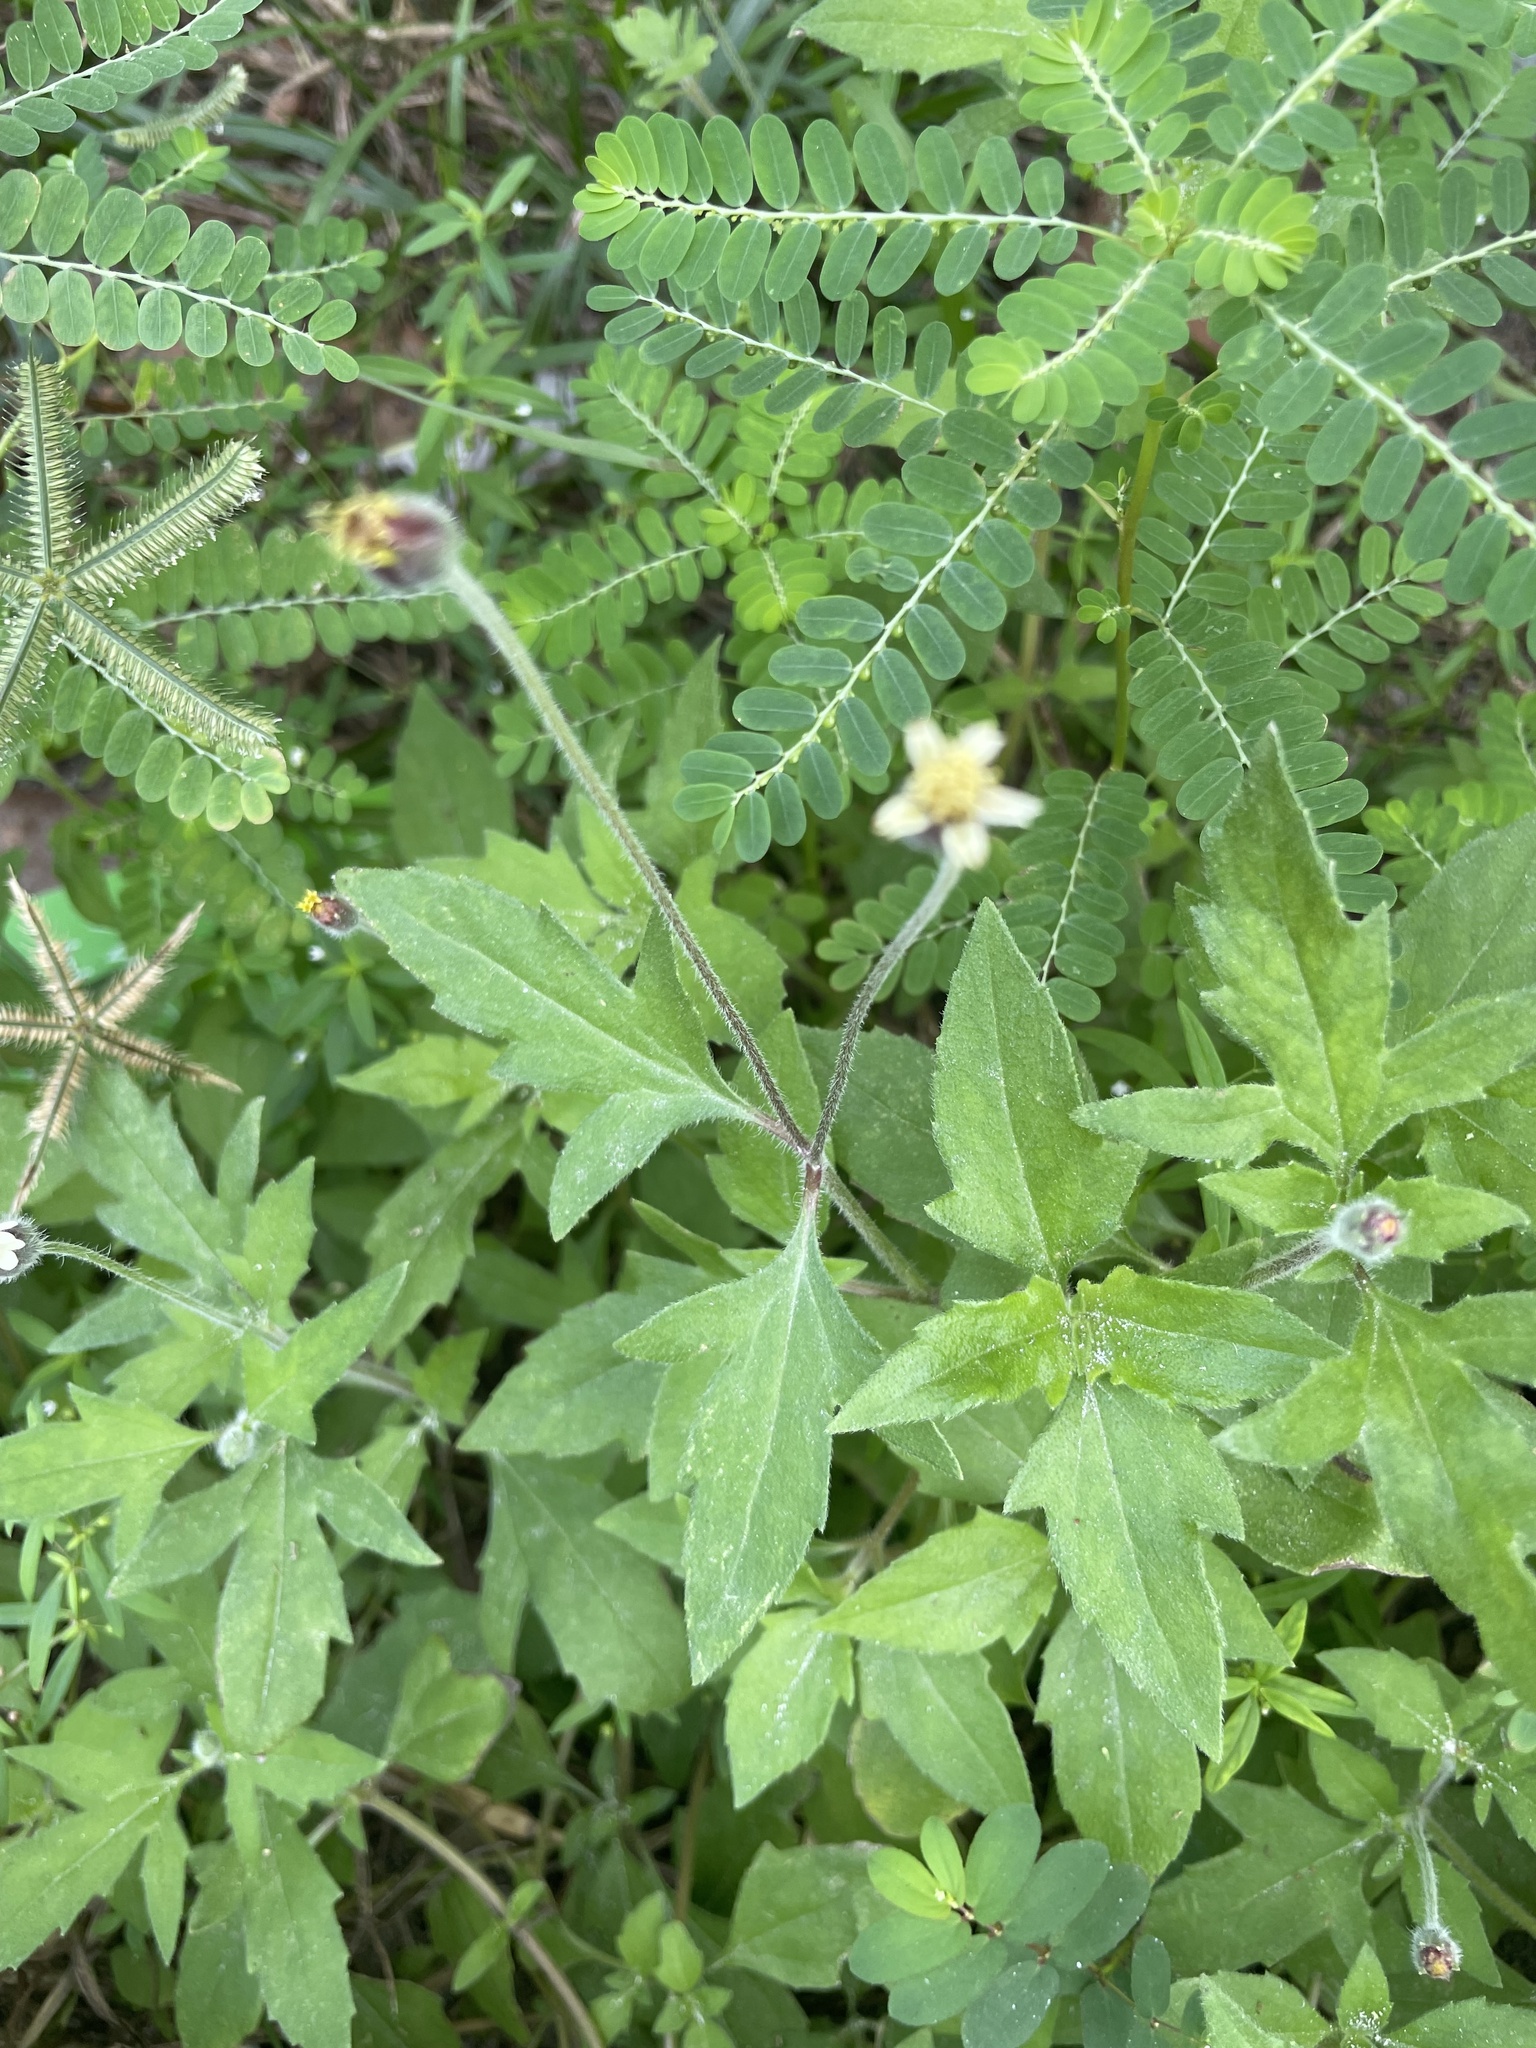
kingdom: Plantae
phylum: Tracheophyta
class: Magnoliopsida
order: Asterales
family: Asteraceae
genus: Tridax
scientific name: Tridax procumbens
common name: Coatbuttons
